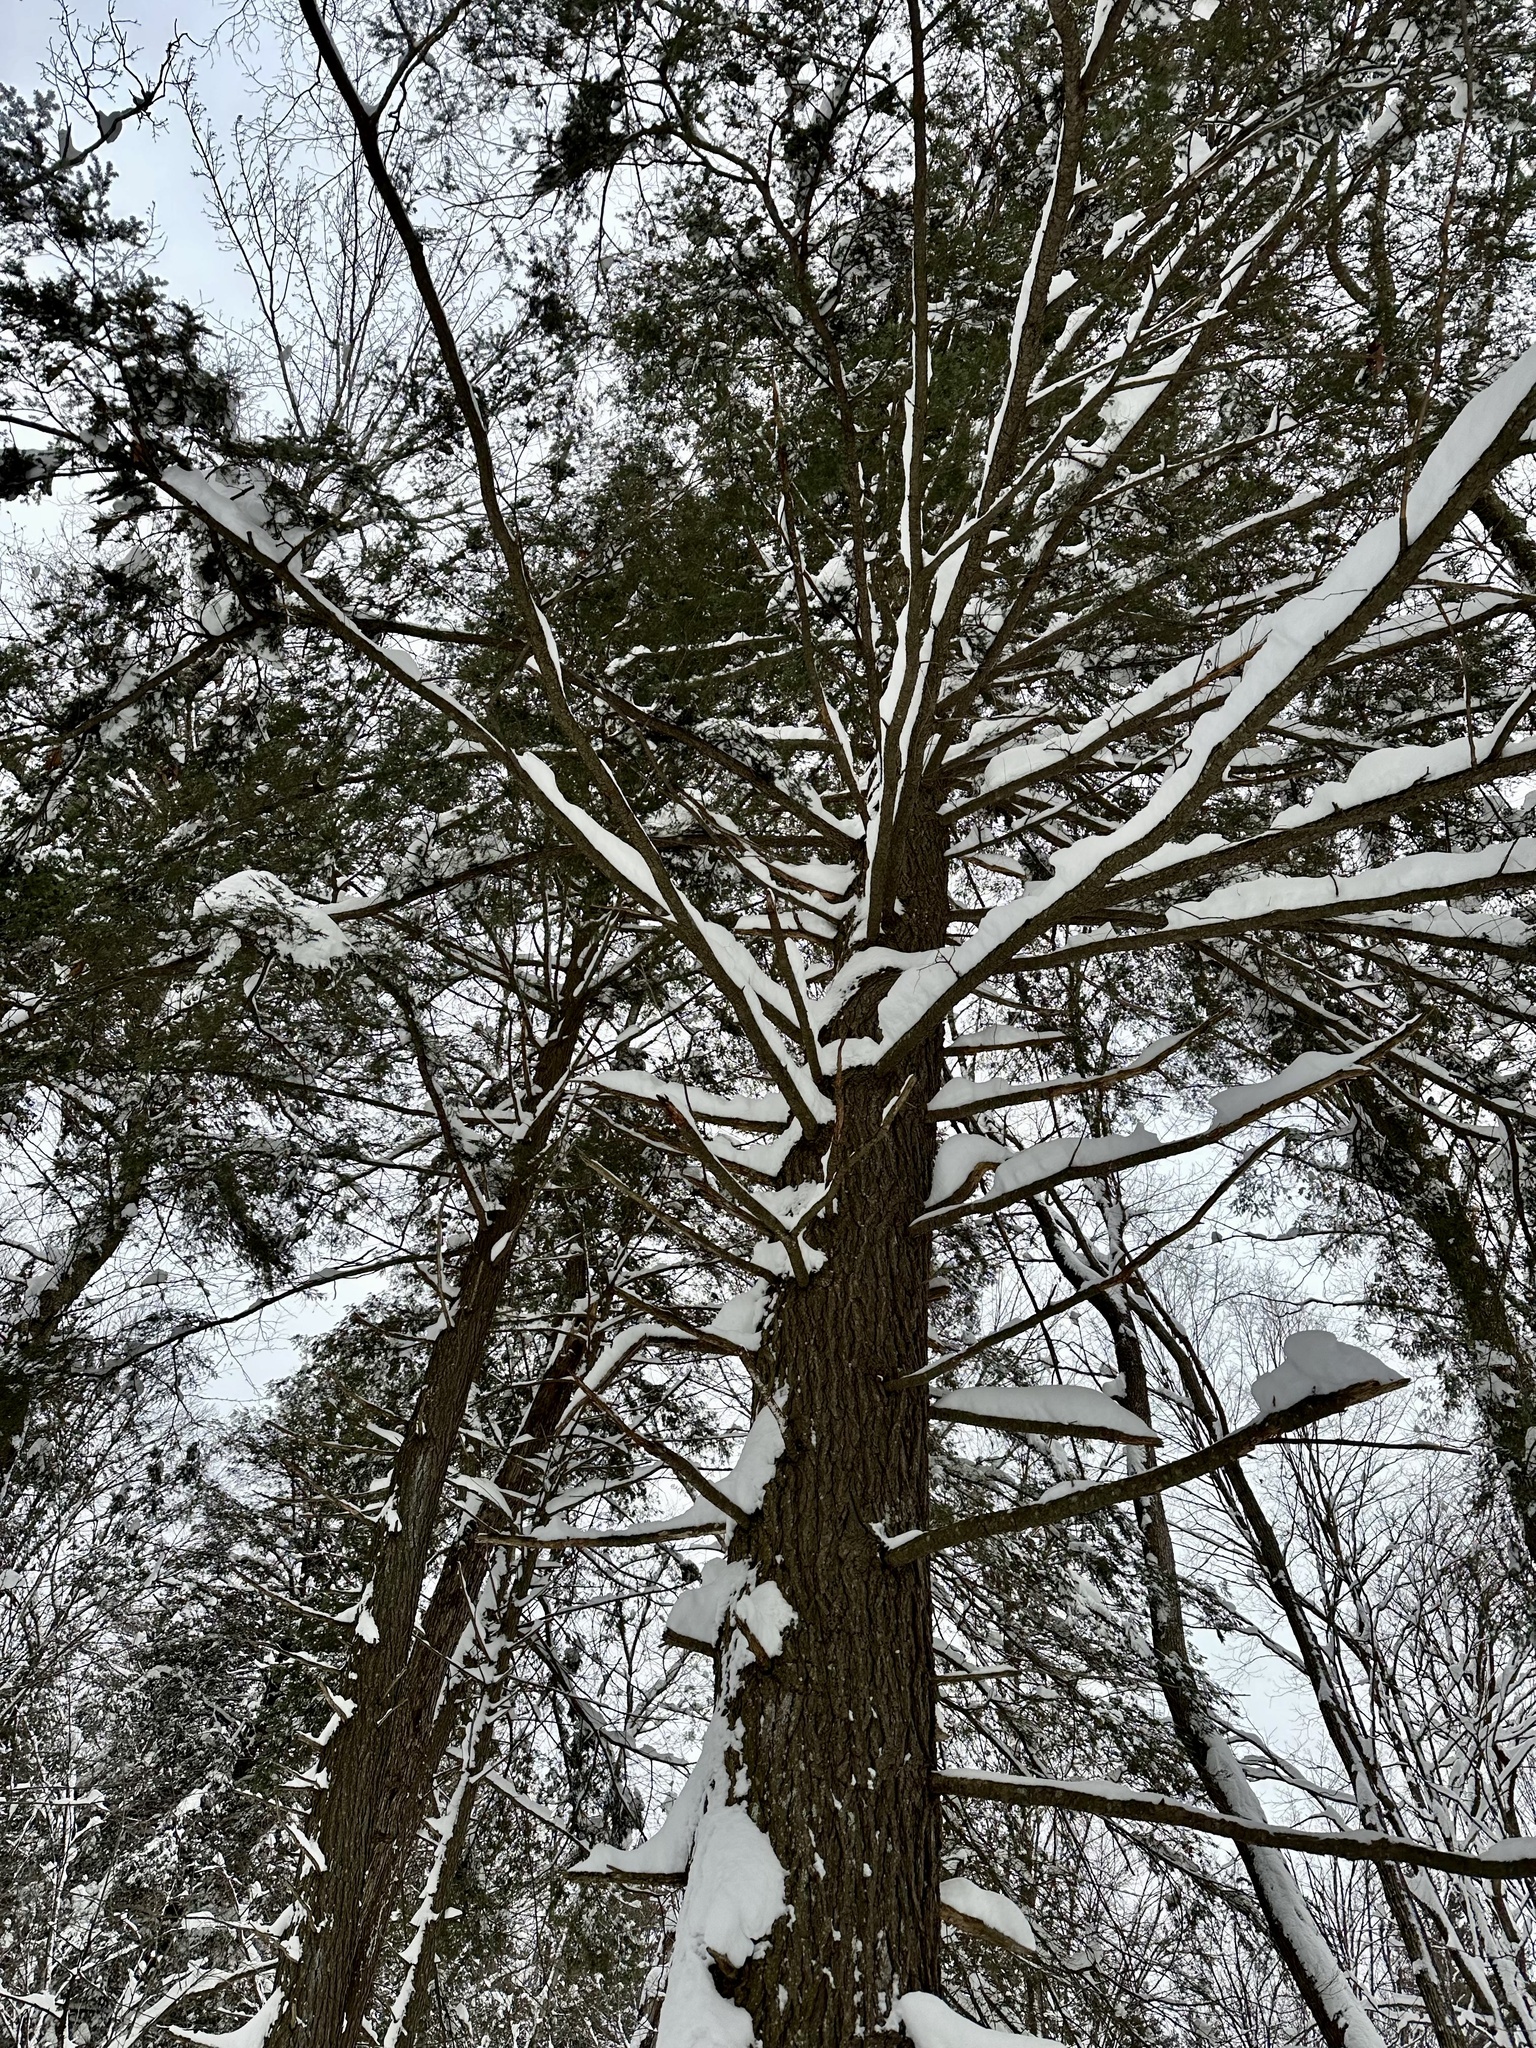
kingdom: Plantae
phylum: Tracheophyta
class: Pinopsida
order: Pinales
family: Pinaceae
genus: Tsuga
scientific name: Tsuga canadensis
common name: Eastern hemlock
